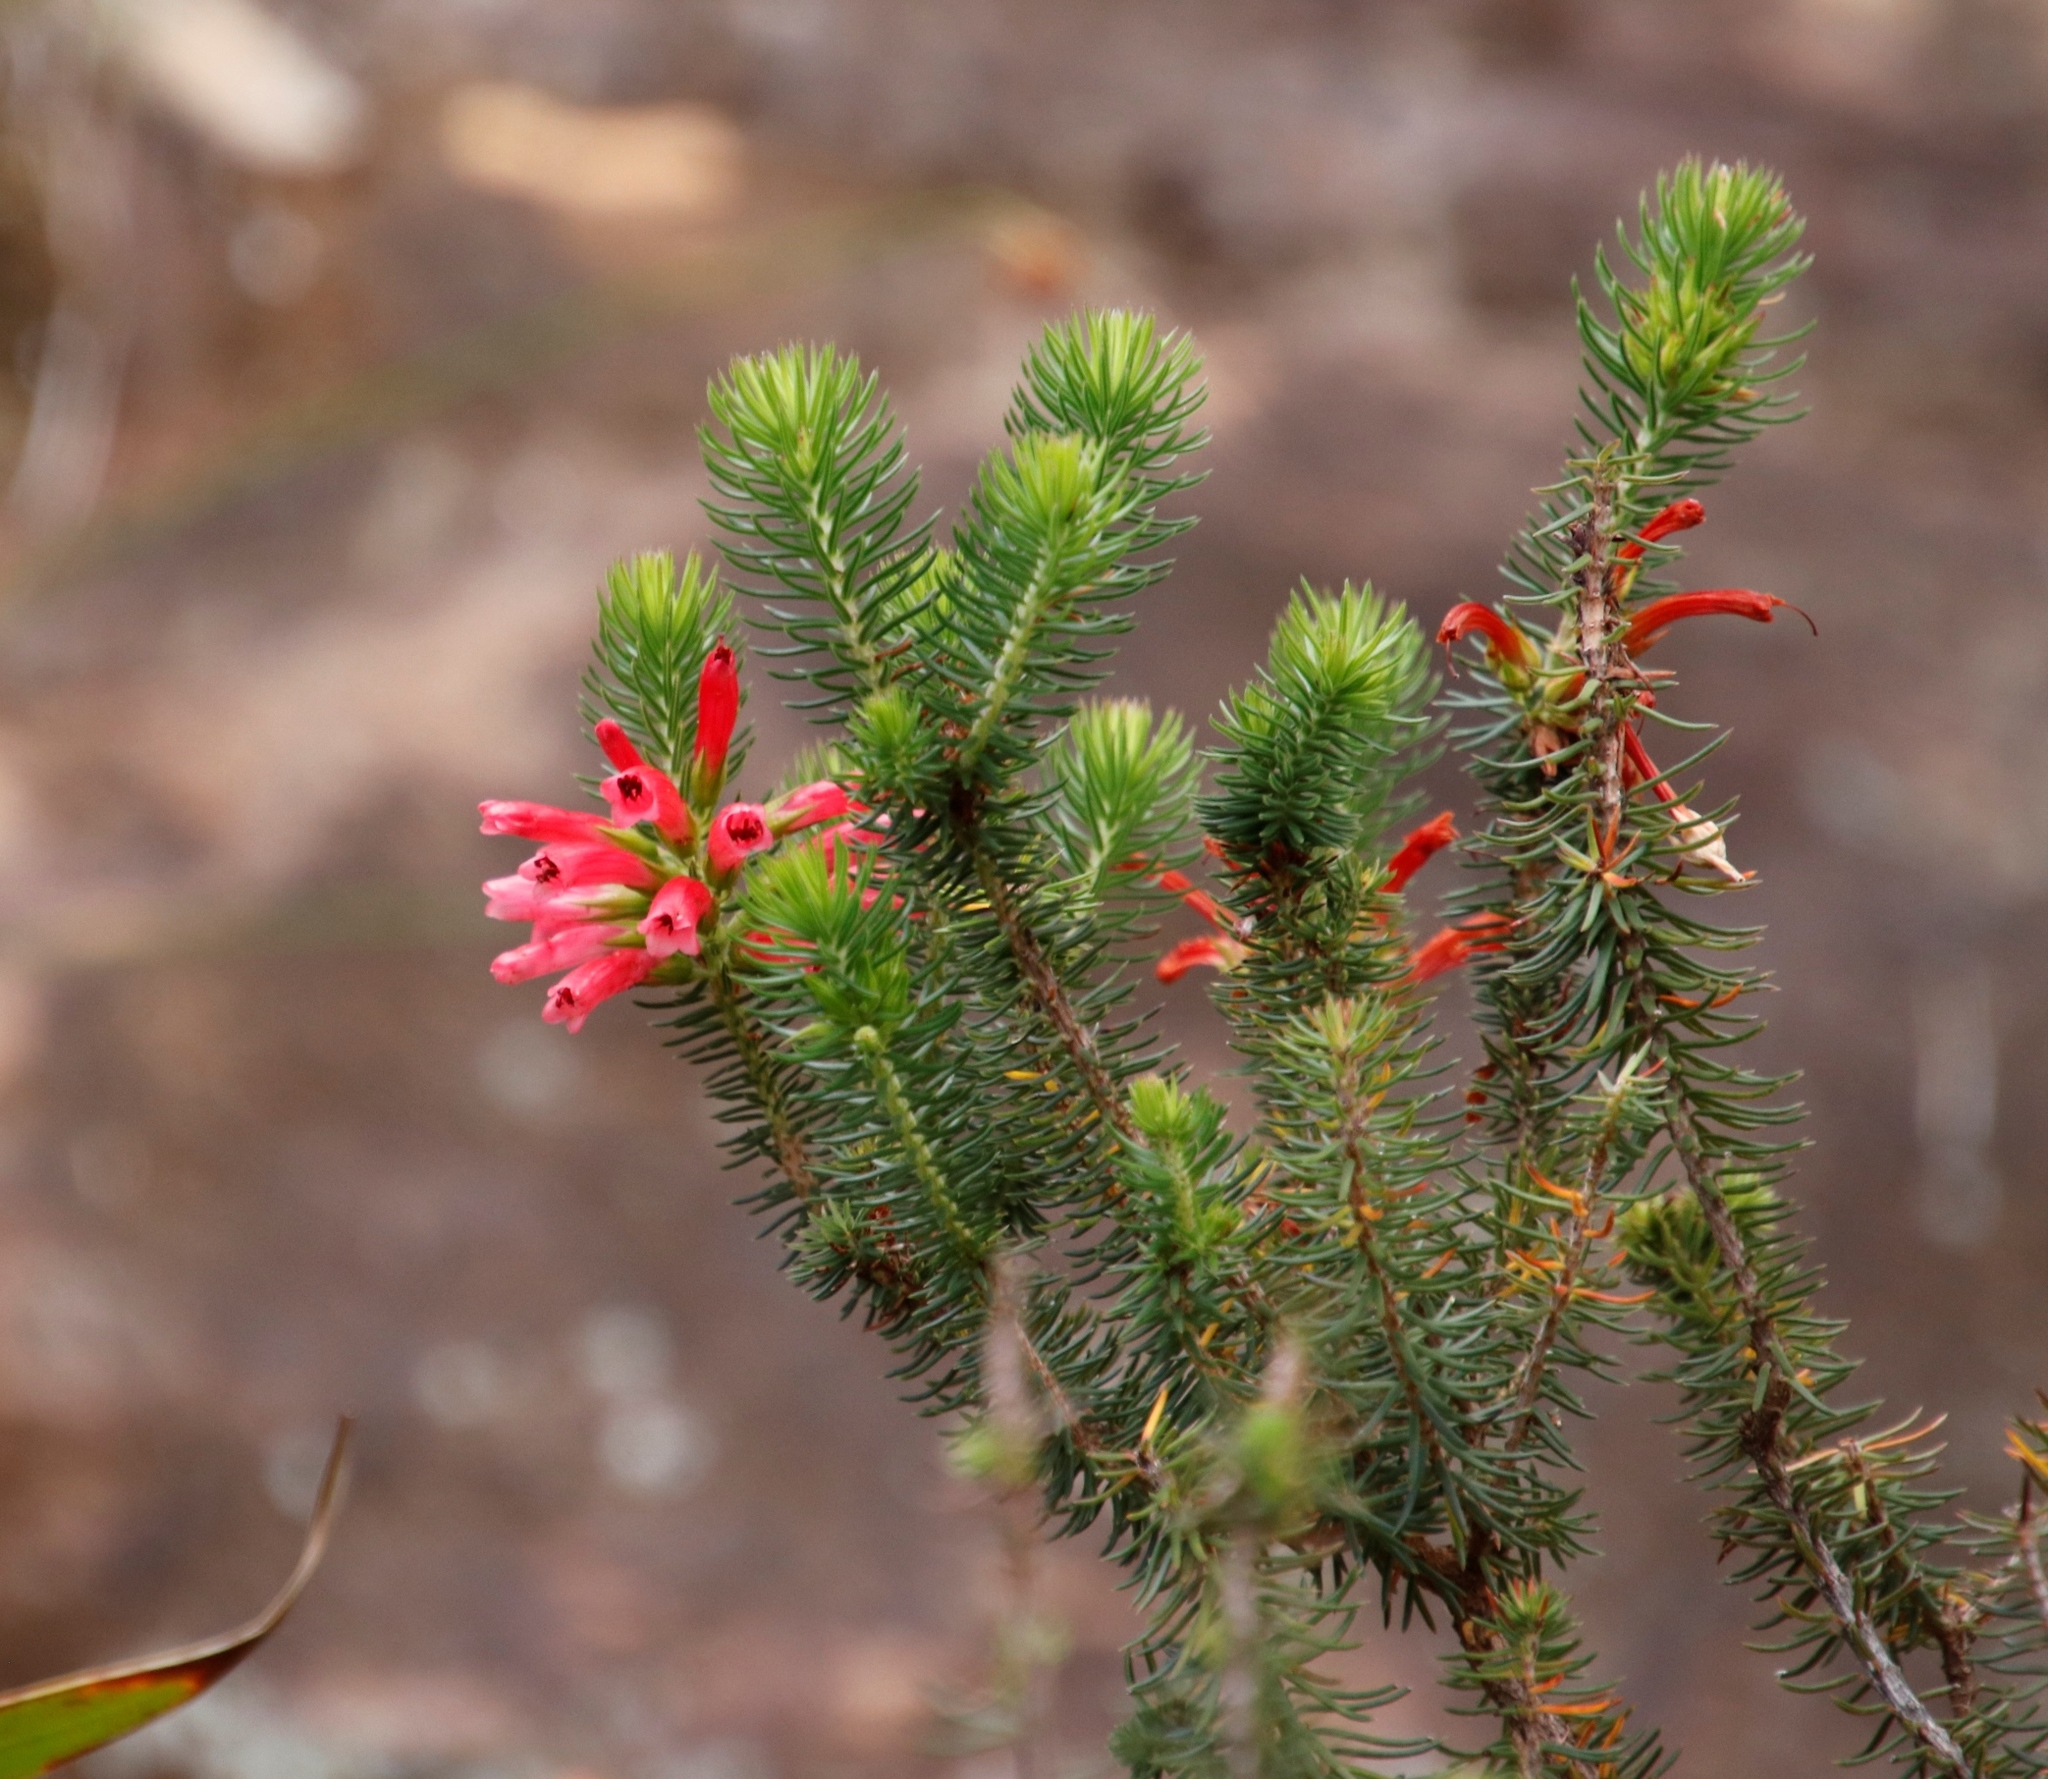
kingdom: Plantae
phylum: Tracheophyta
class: Magnoliopsida
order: Ericales
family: Ericaceae
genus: Erica
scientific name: Erica abietina
